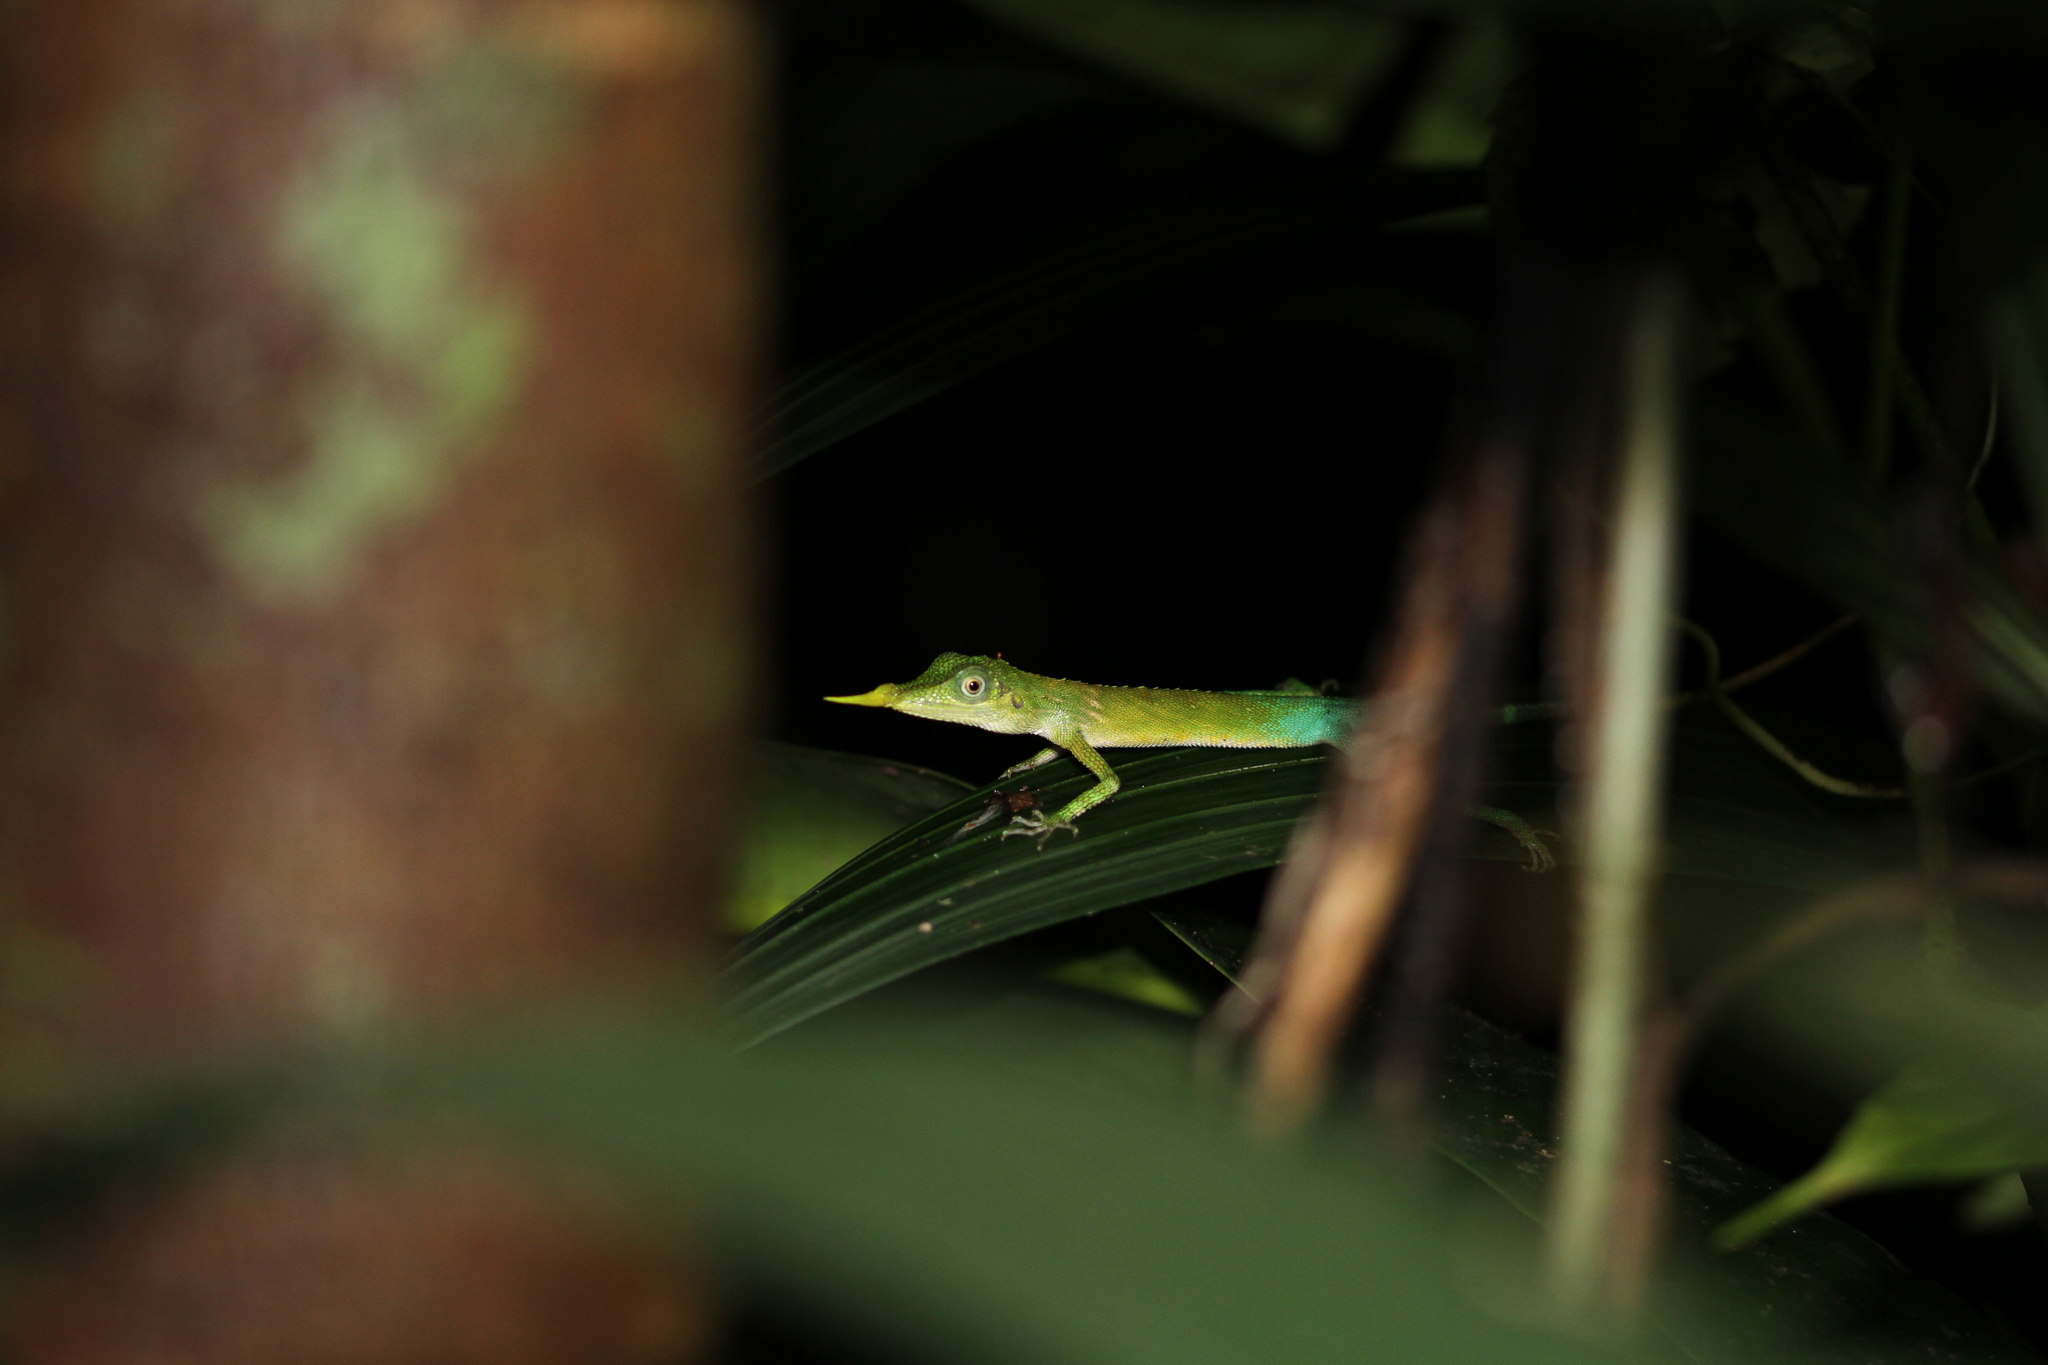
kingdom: Animalia
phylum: Chordata
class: Squamata
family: Agamidae
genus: Harpesaurus
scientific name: Harpesaurus brooksi
